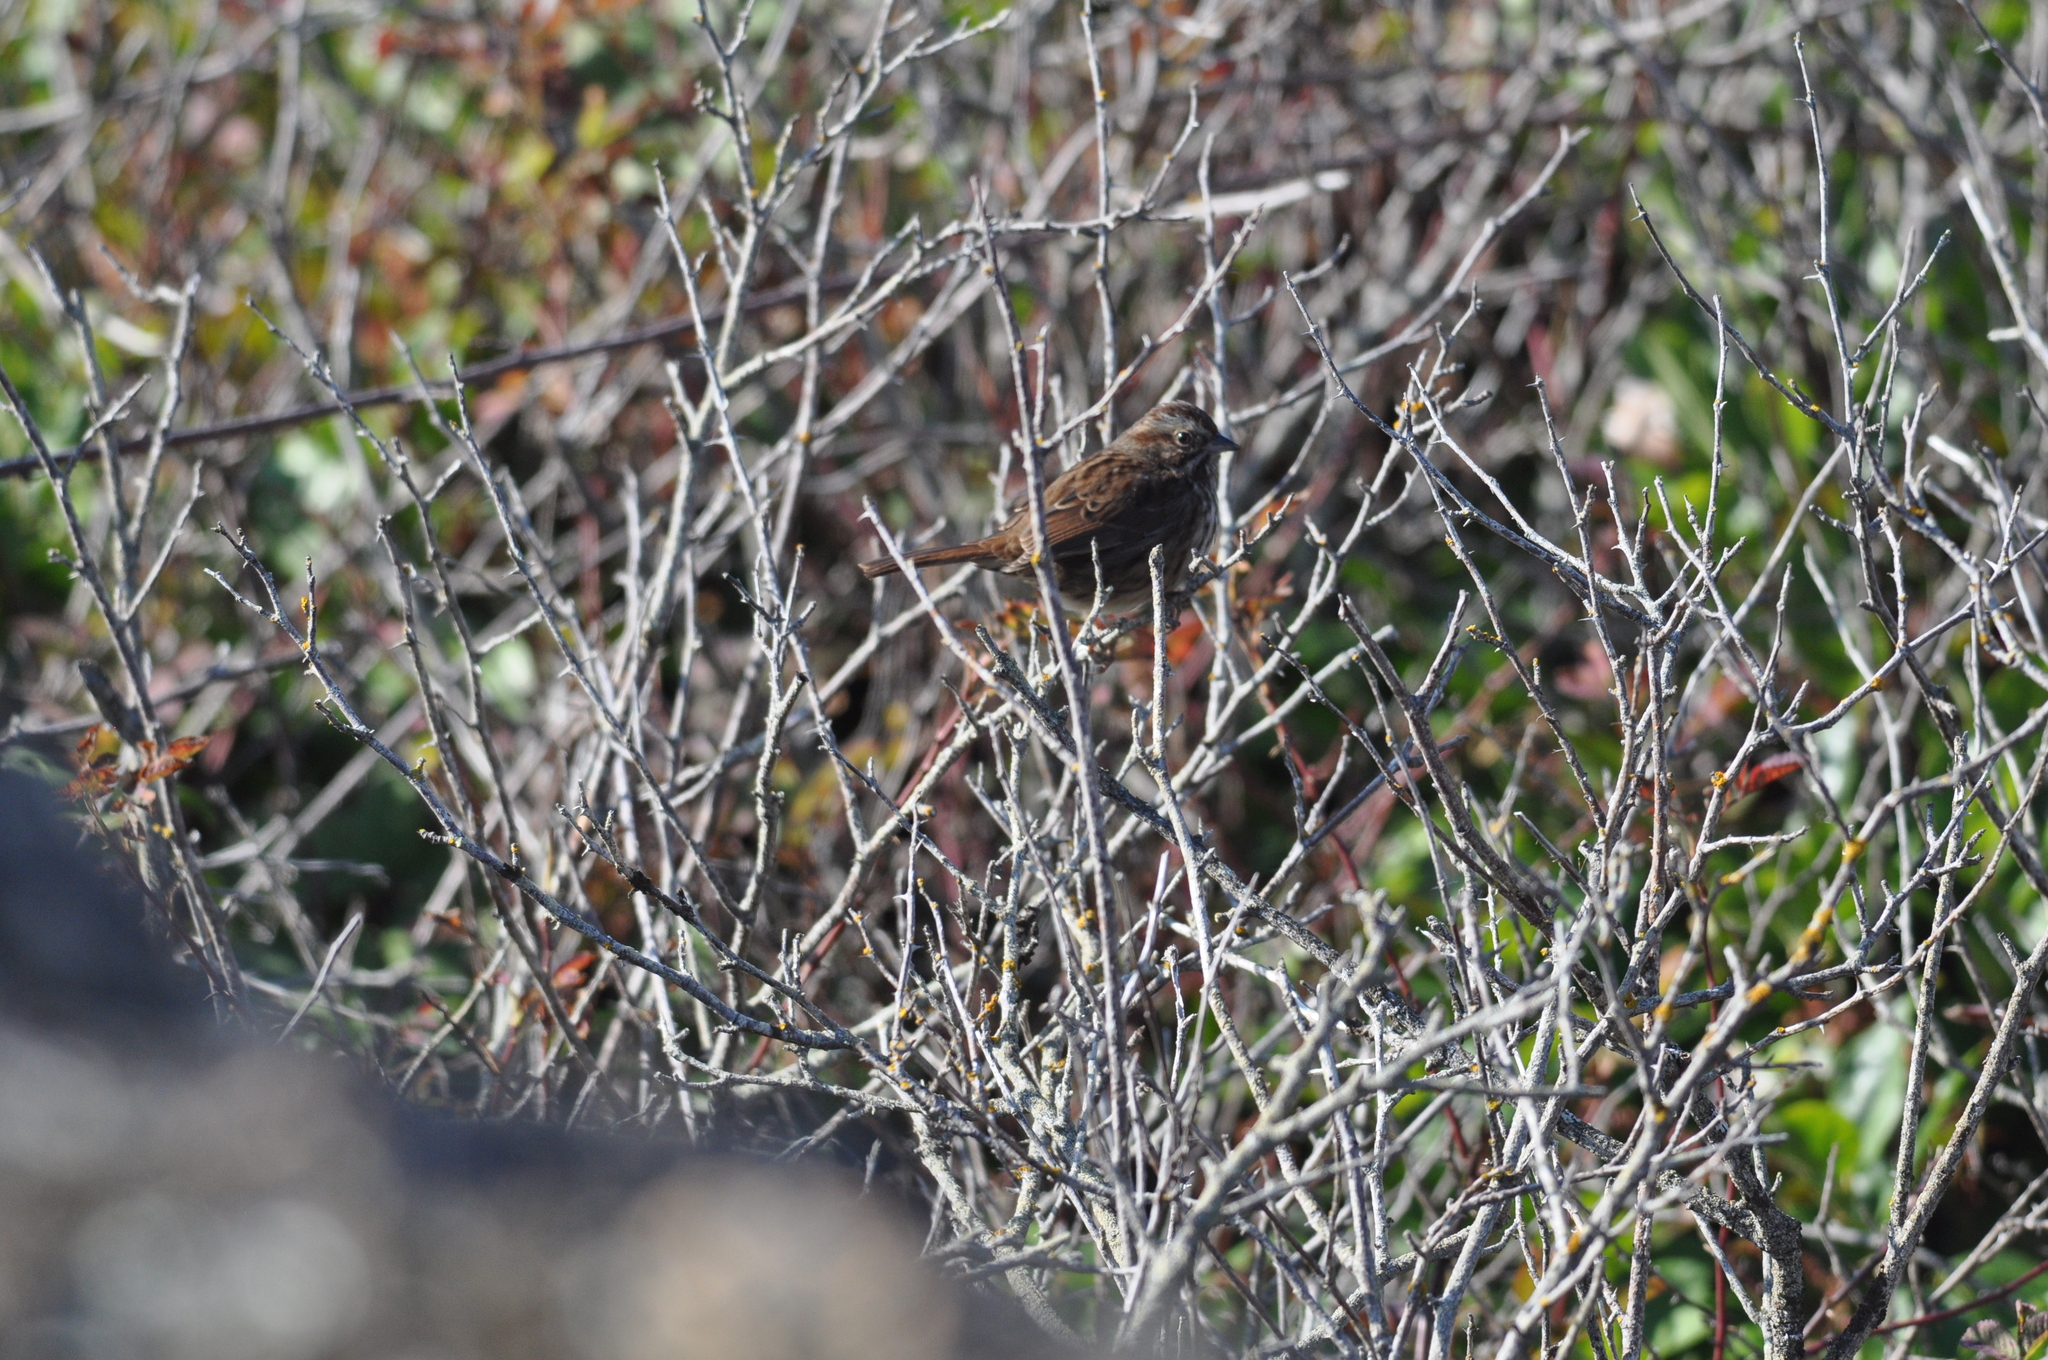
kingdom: Animalia
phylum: Chordata
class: Aves
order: Passeriformes
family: Passerellidae
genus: Melospiza
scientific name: Melospiza melodia
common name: Song sparrow
